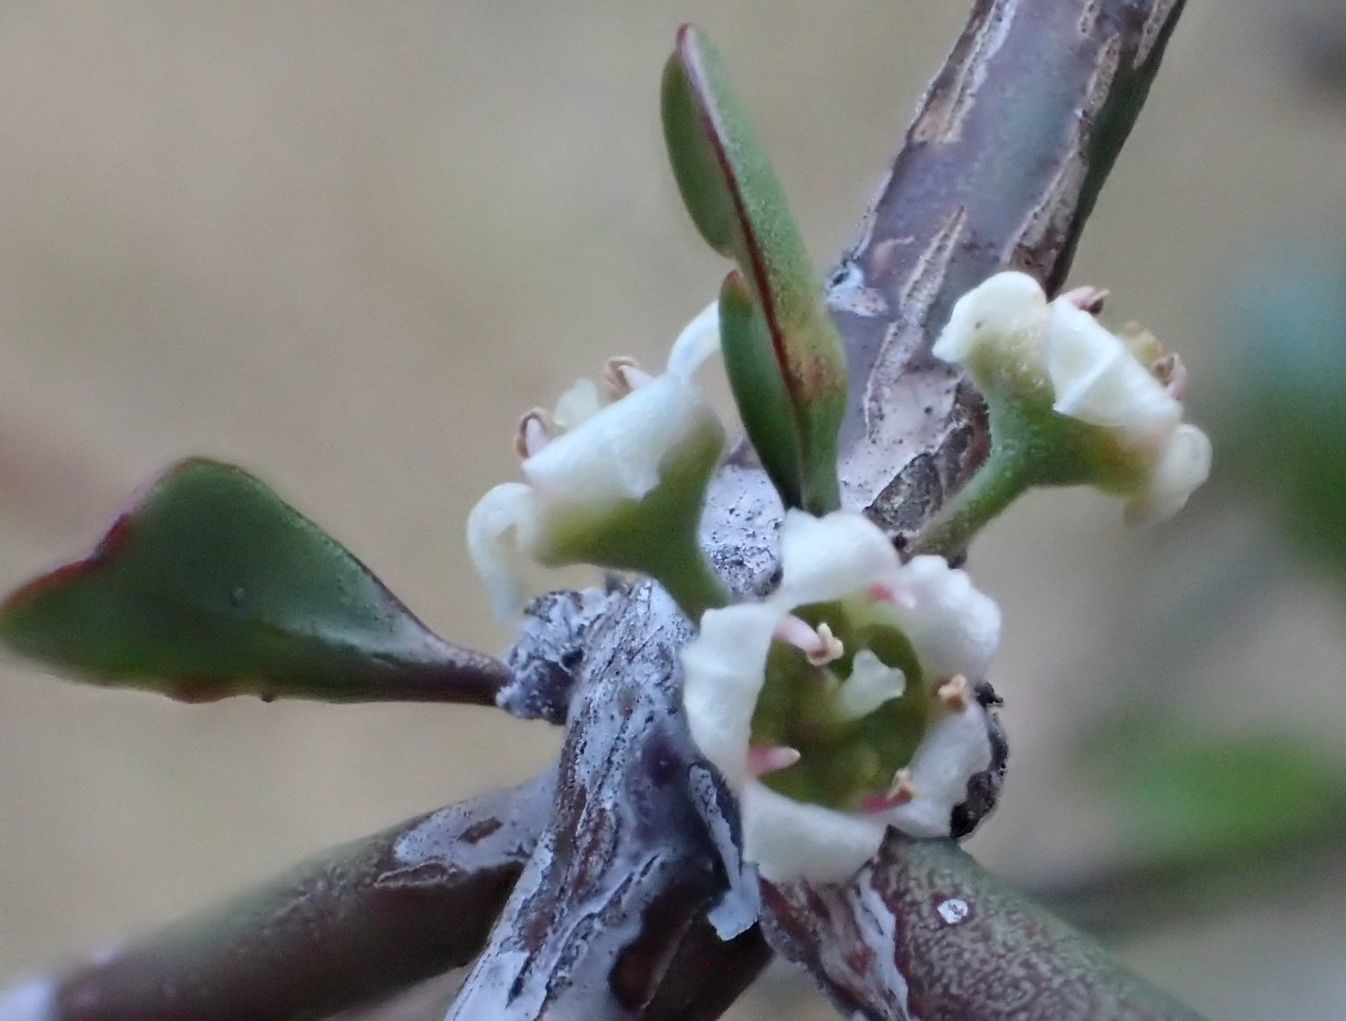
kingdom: Plantae
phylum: Tracheophyta
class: Magnoliopsida
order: Rosales
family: Rhamnaceae
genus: Discaria
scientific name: Discaria toumatou
